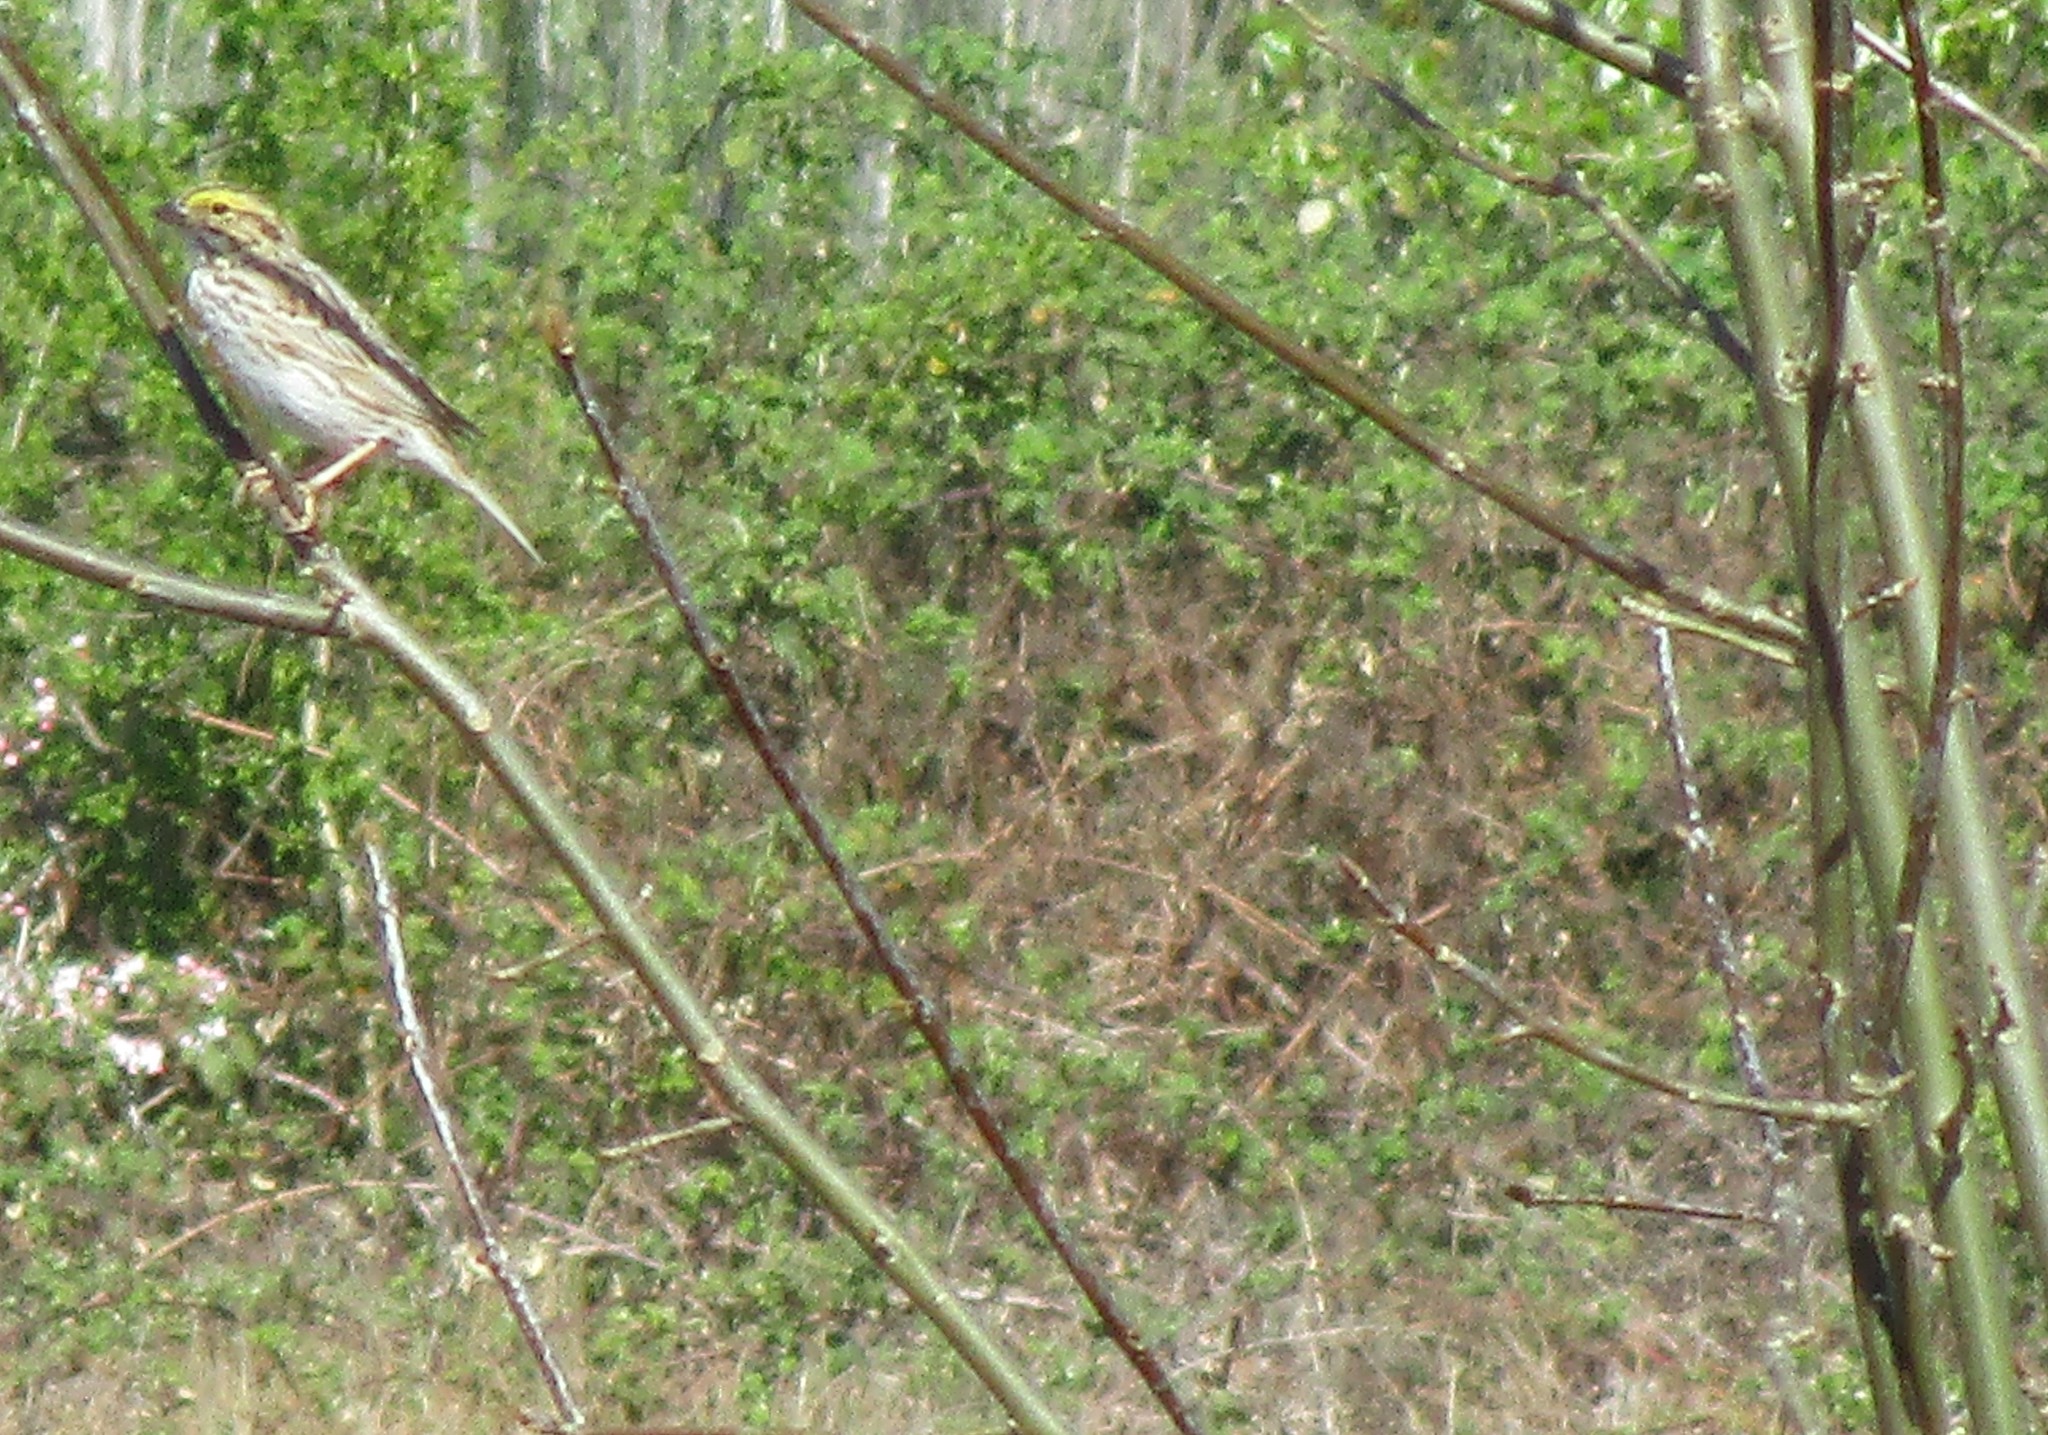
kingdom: Animalia
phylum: Chordata
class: Aves
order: Passeriformes
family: Passerellidae
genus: Passerculus
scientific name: Passerculus sandwichensis
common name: Savannah sparrow
